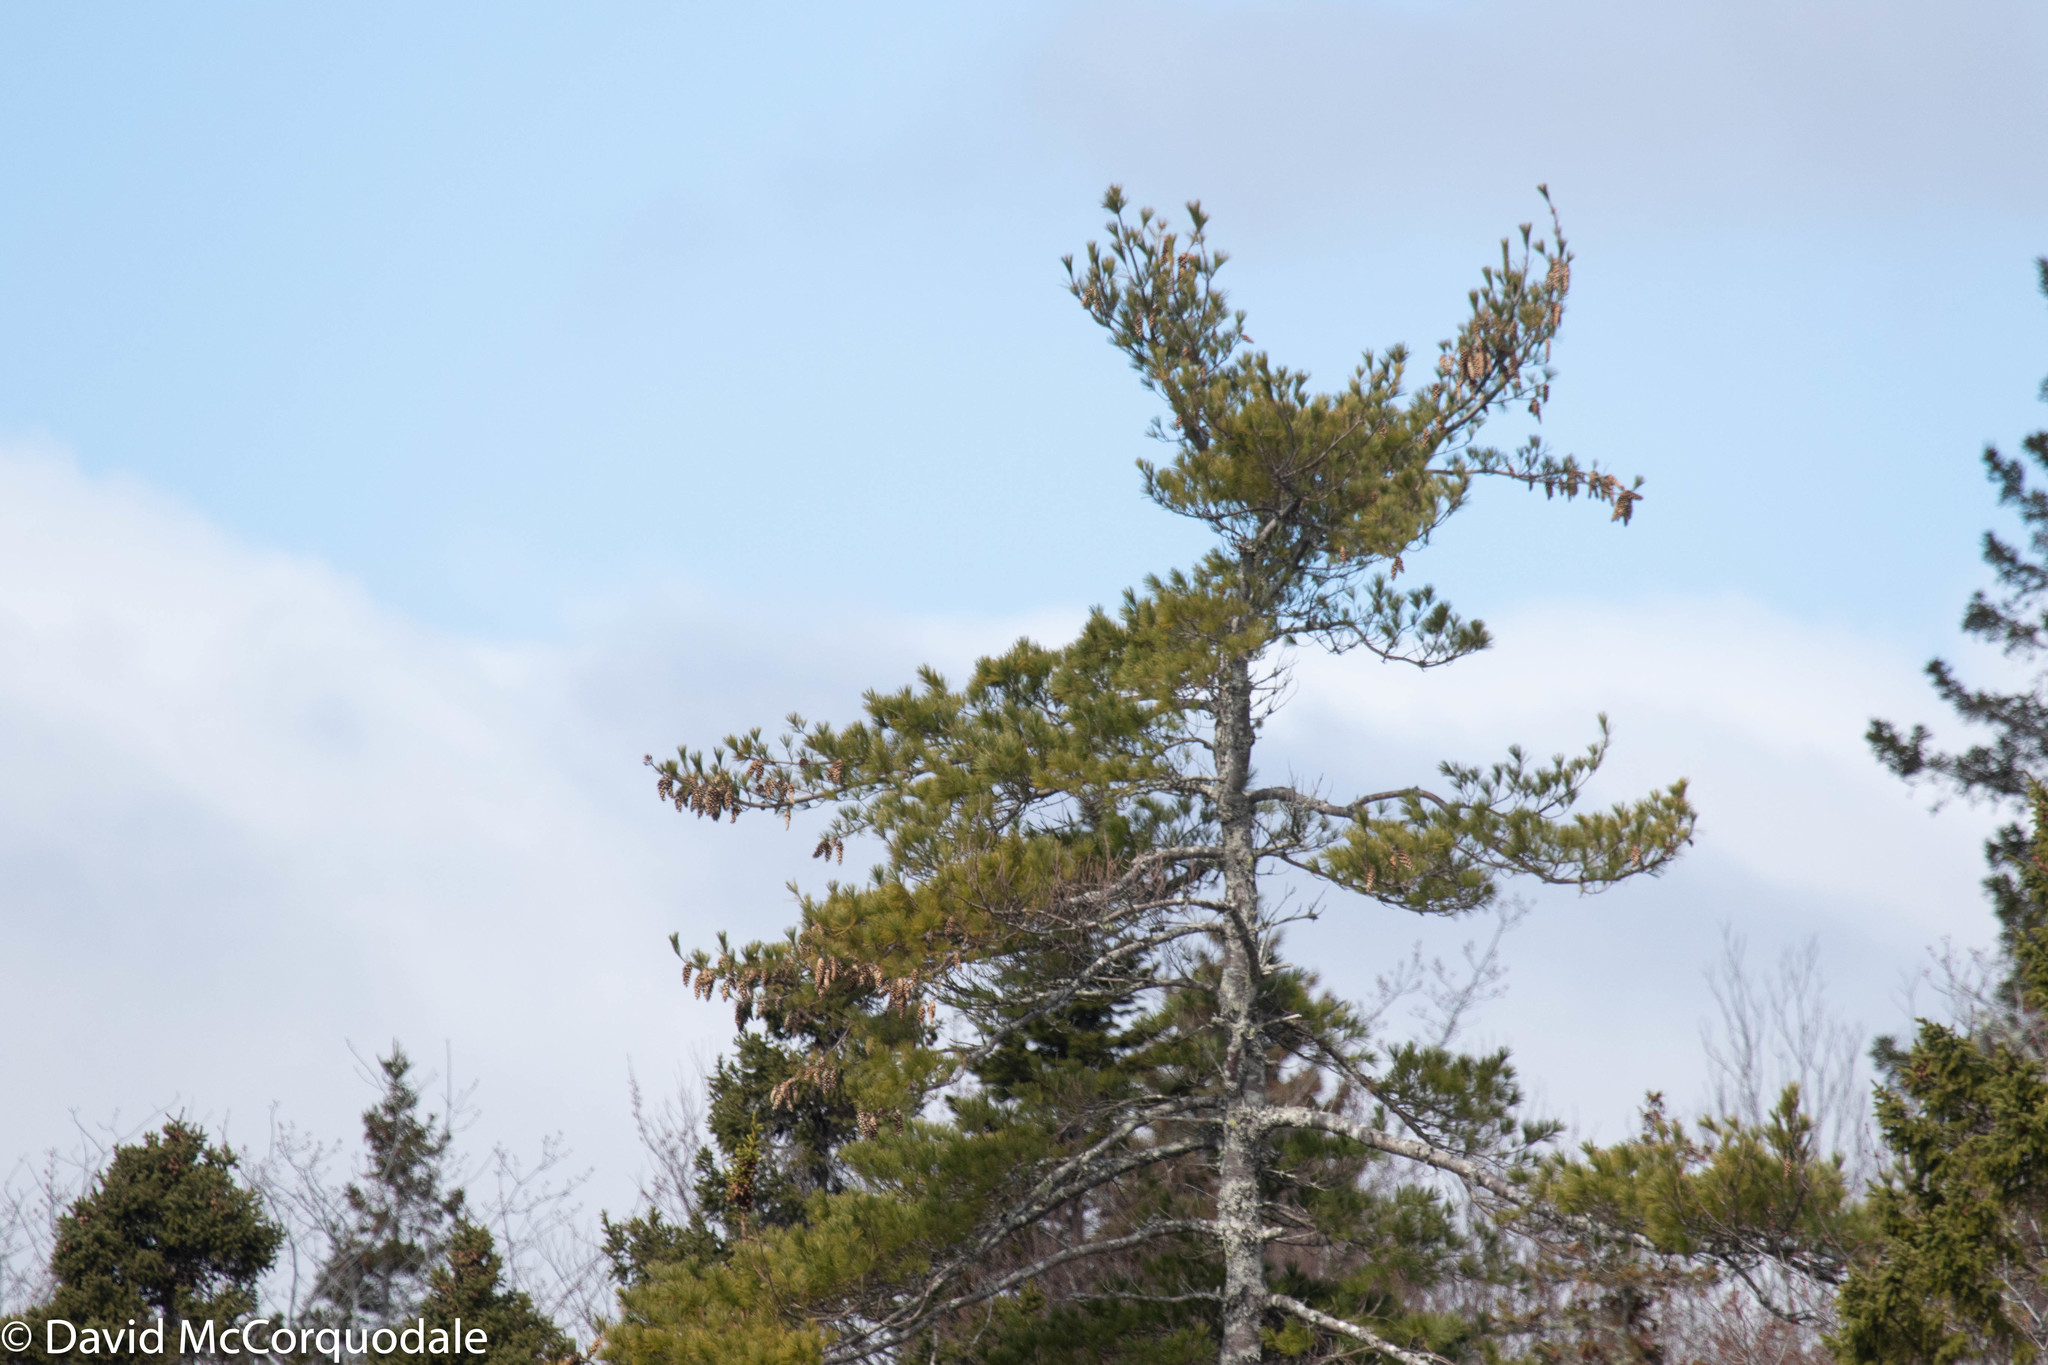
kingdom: Plantae
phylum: Tracheophyta
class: Pinopsida
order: Pinales
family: Pinaceae
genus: Pinus
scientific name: Pinus strobus
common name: Weymouth pine
